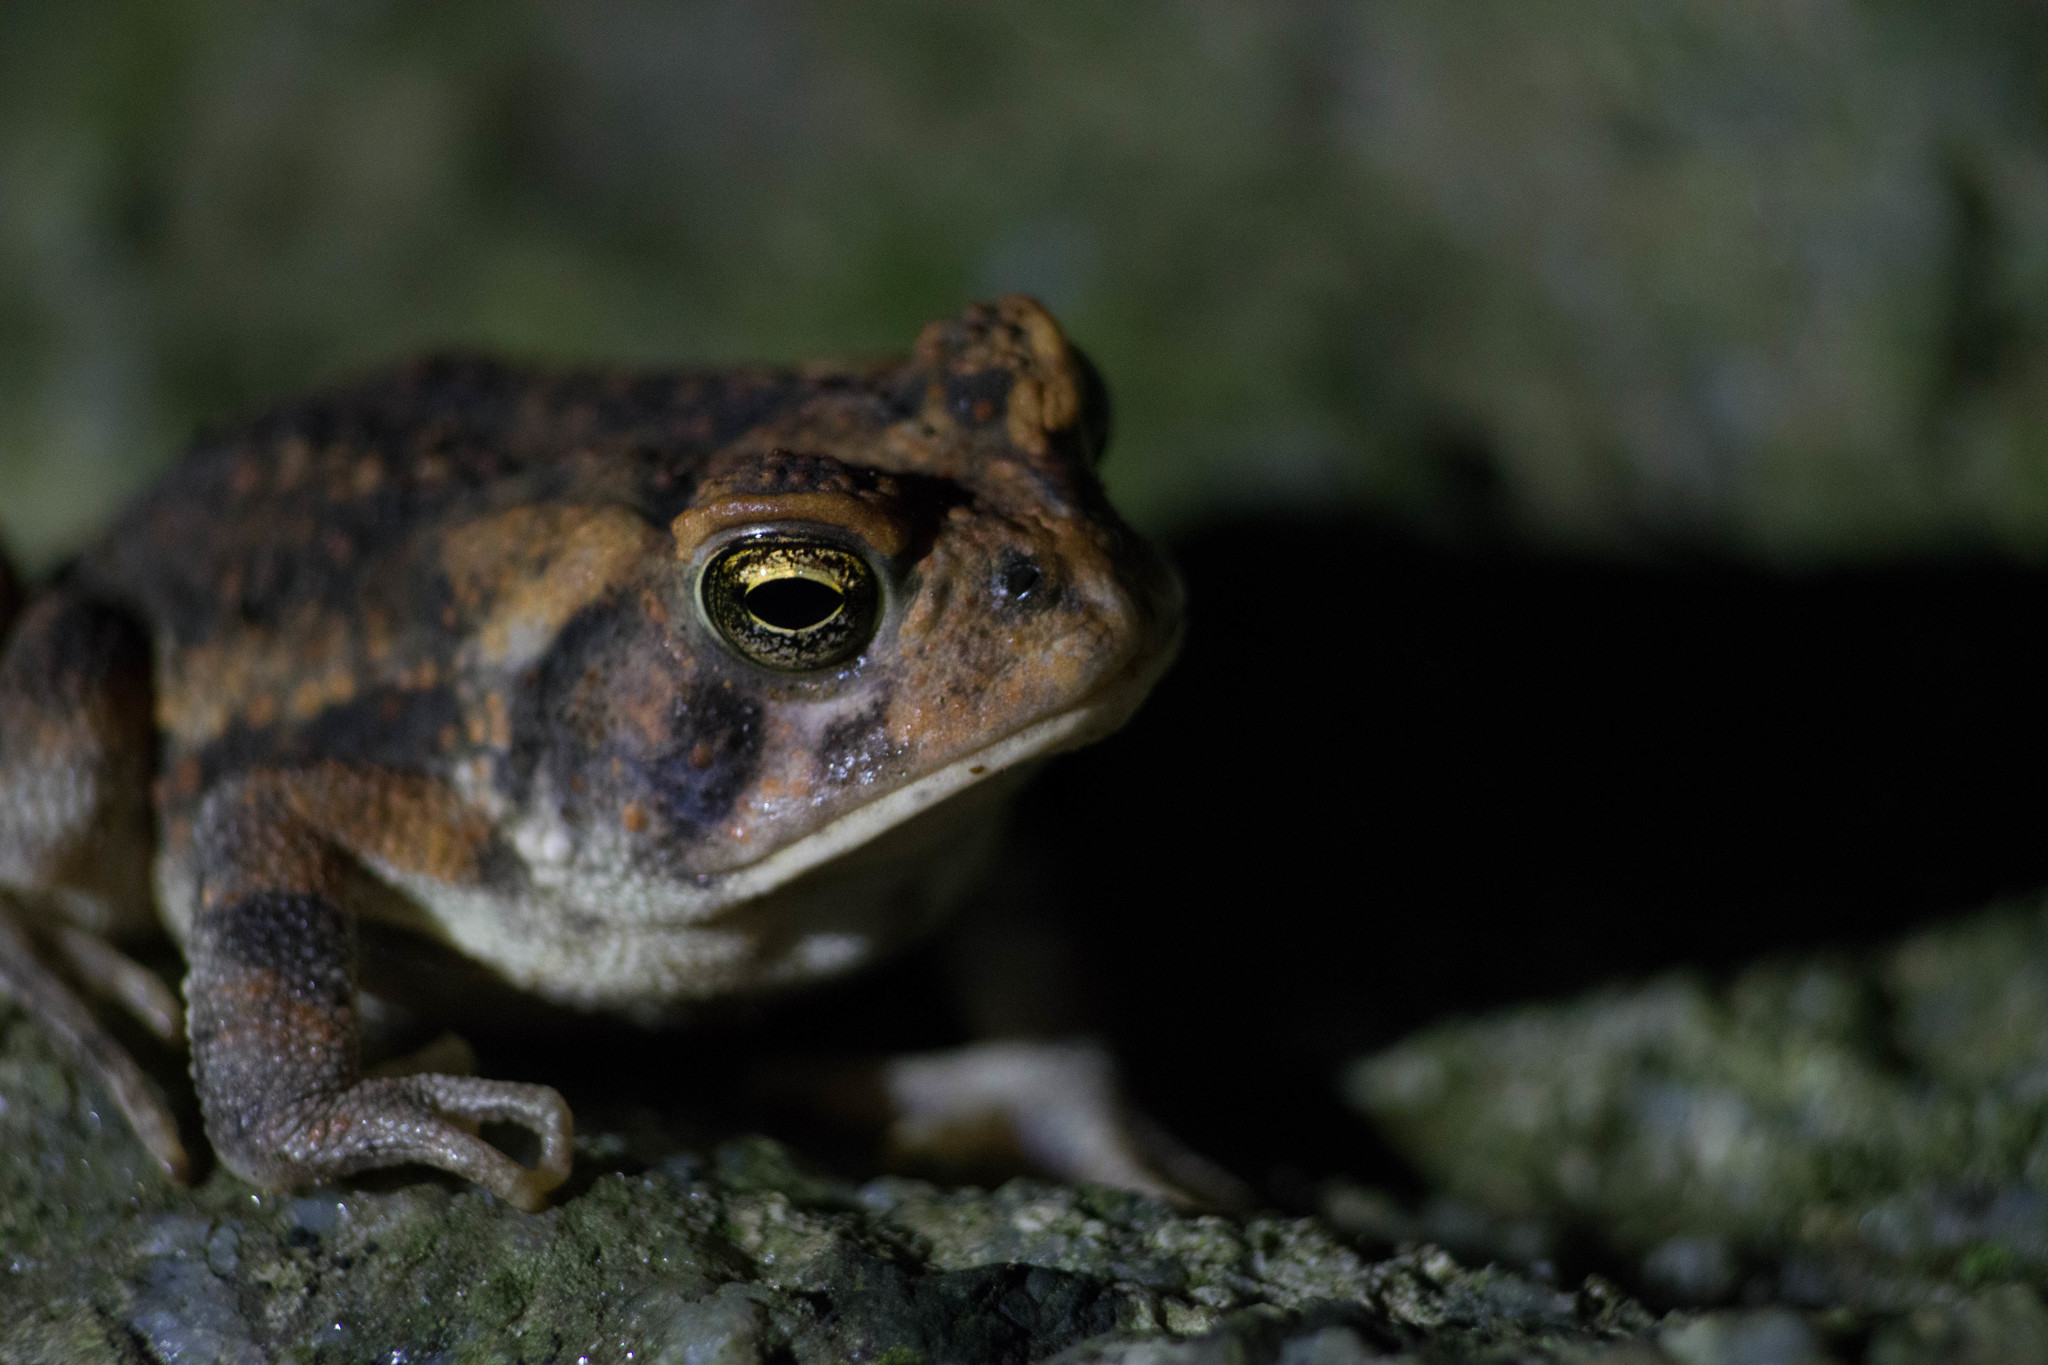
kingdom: Animalia
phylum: Chordata
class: Amphibia
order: Anura
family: Bufonidae
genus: Anaxyrus
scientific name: Anaxyrus americanus
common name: American toad
